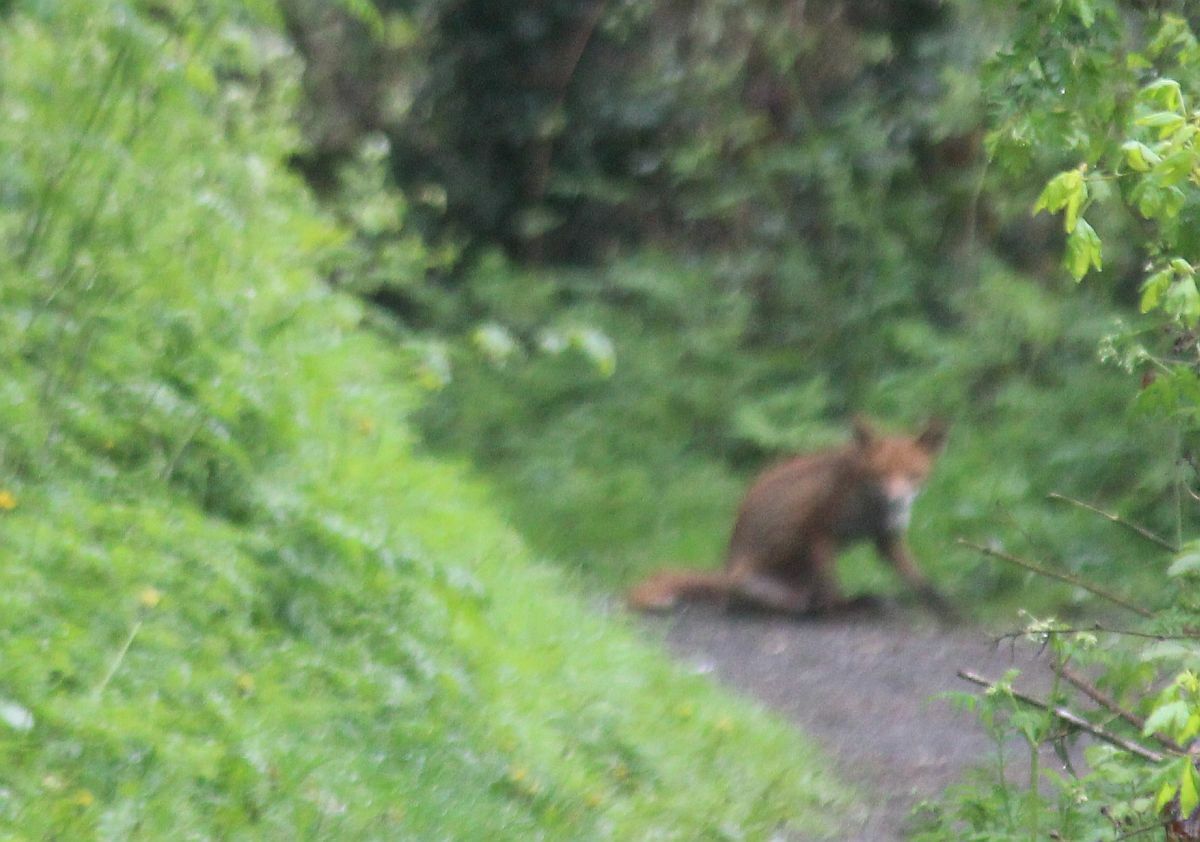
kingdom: Animalia
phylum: Chordata
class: Mammalia
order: Carnivora
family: Canidae
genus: Vulpes
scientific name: Vulpes vulpes
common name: Red fox
